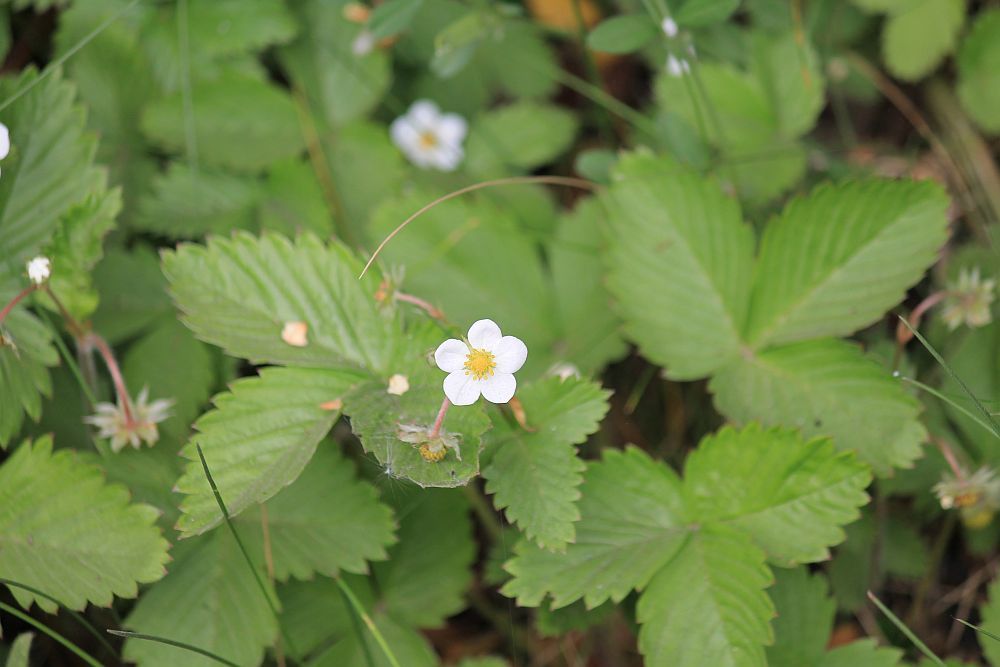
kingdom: Plantae
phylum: Tracheophyta
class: Magnoliopsida
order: Rosales
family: Rosaceae
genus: Fragaria
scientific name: Fragaria vesca
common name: Wild strawberry
